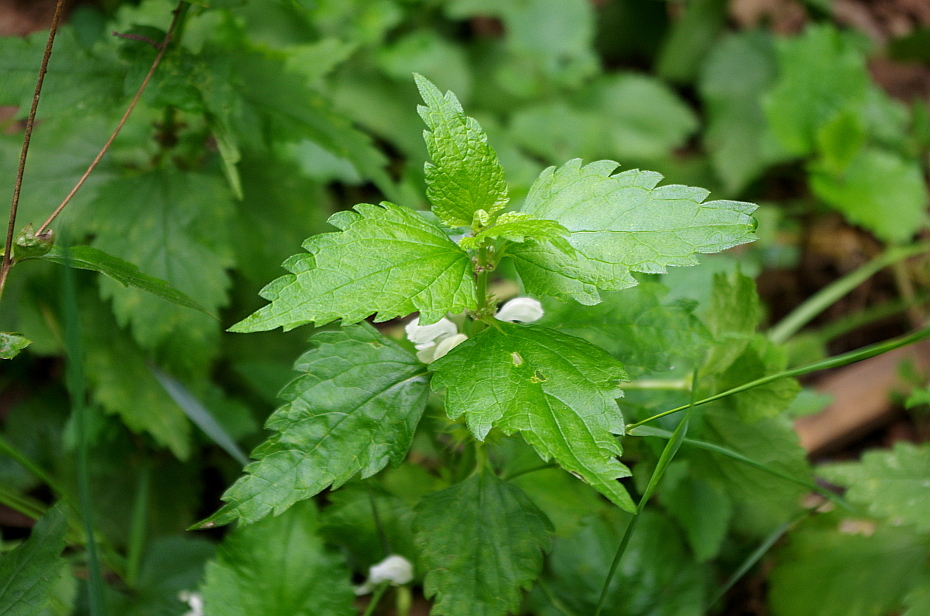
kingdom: Plantae
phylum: Tracheophyta
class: Magnoliopsida
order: Lamiales
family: Lamiaceae
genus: Lamium
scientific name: Lamium album
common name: White dead-nettle
